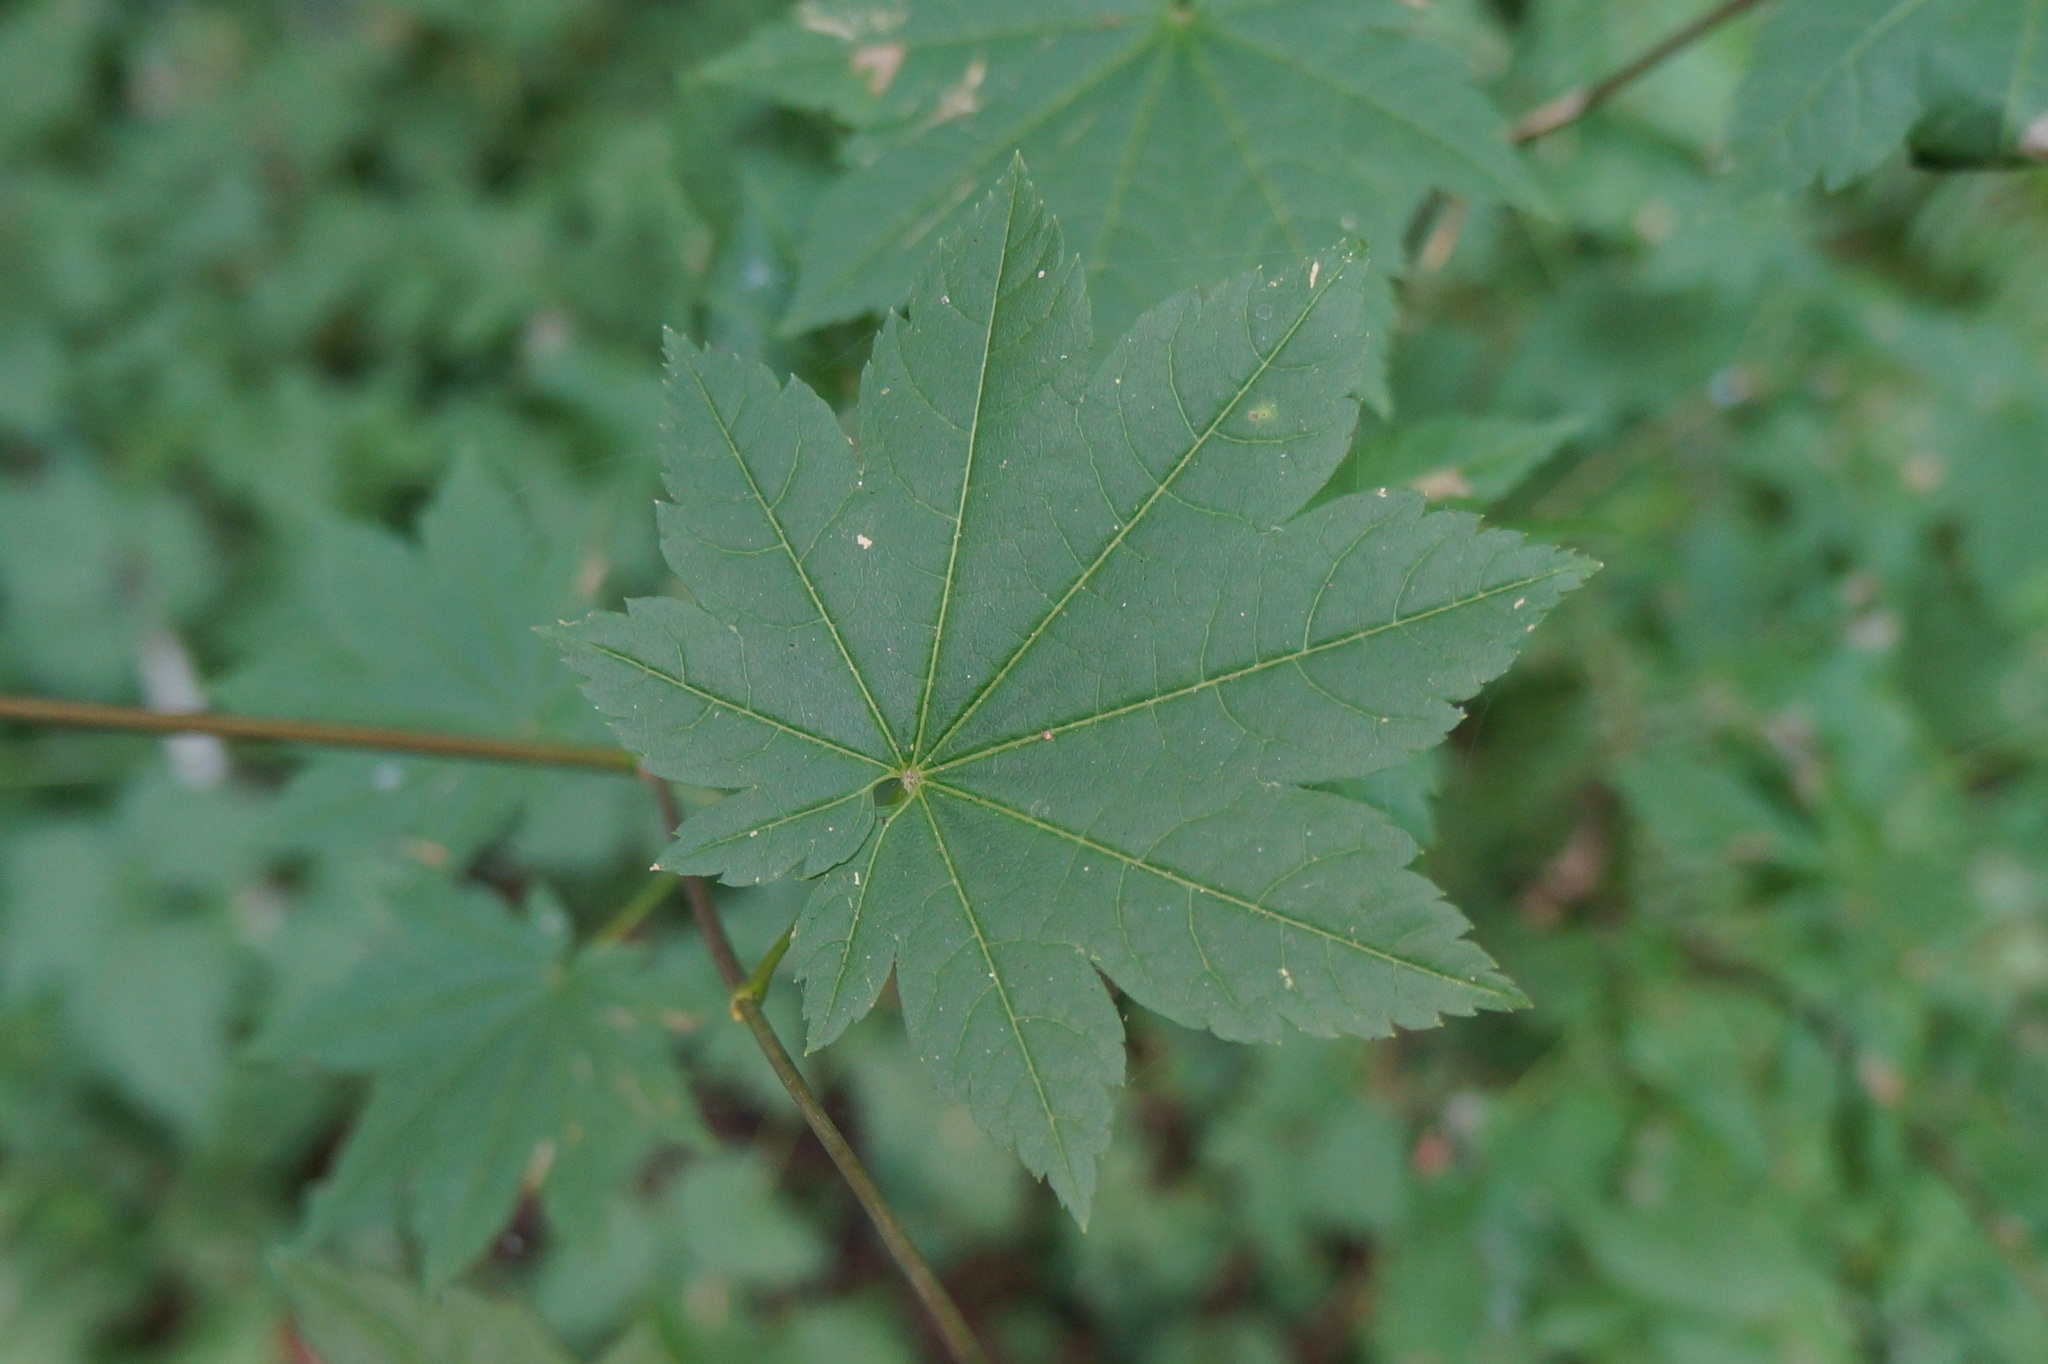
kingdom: Plantae
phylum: Tracheophyta
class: Magnoliopsida
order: Sapindales
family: Sapindaceae
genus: Acer
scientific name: Acer circinatum
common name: Vine maple
